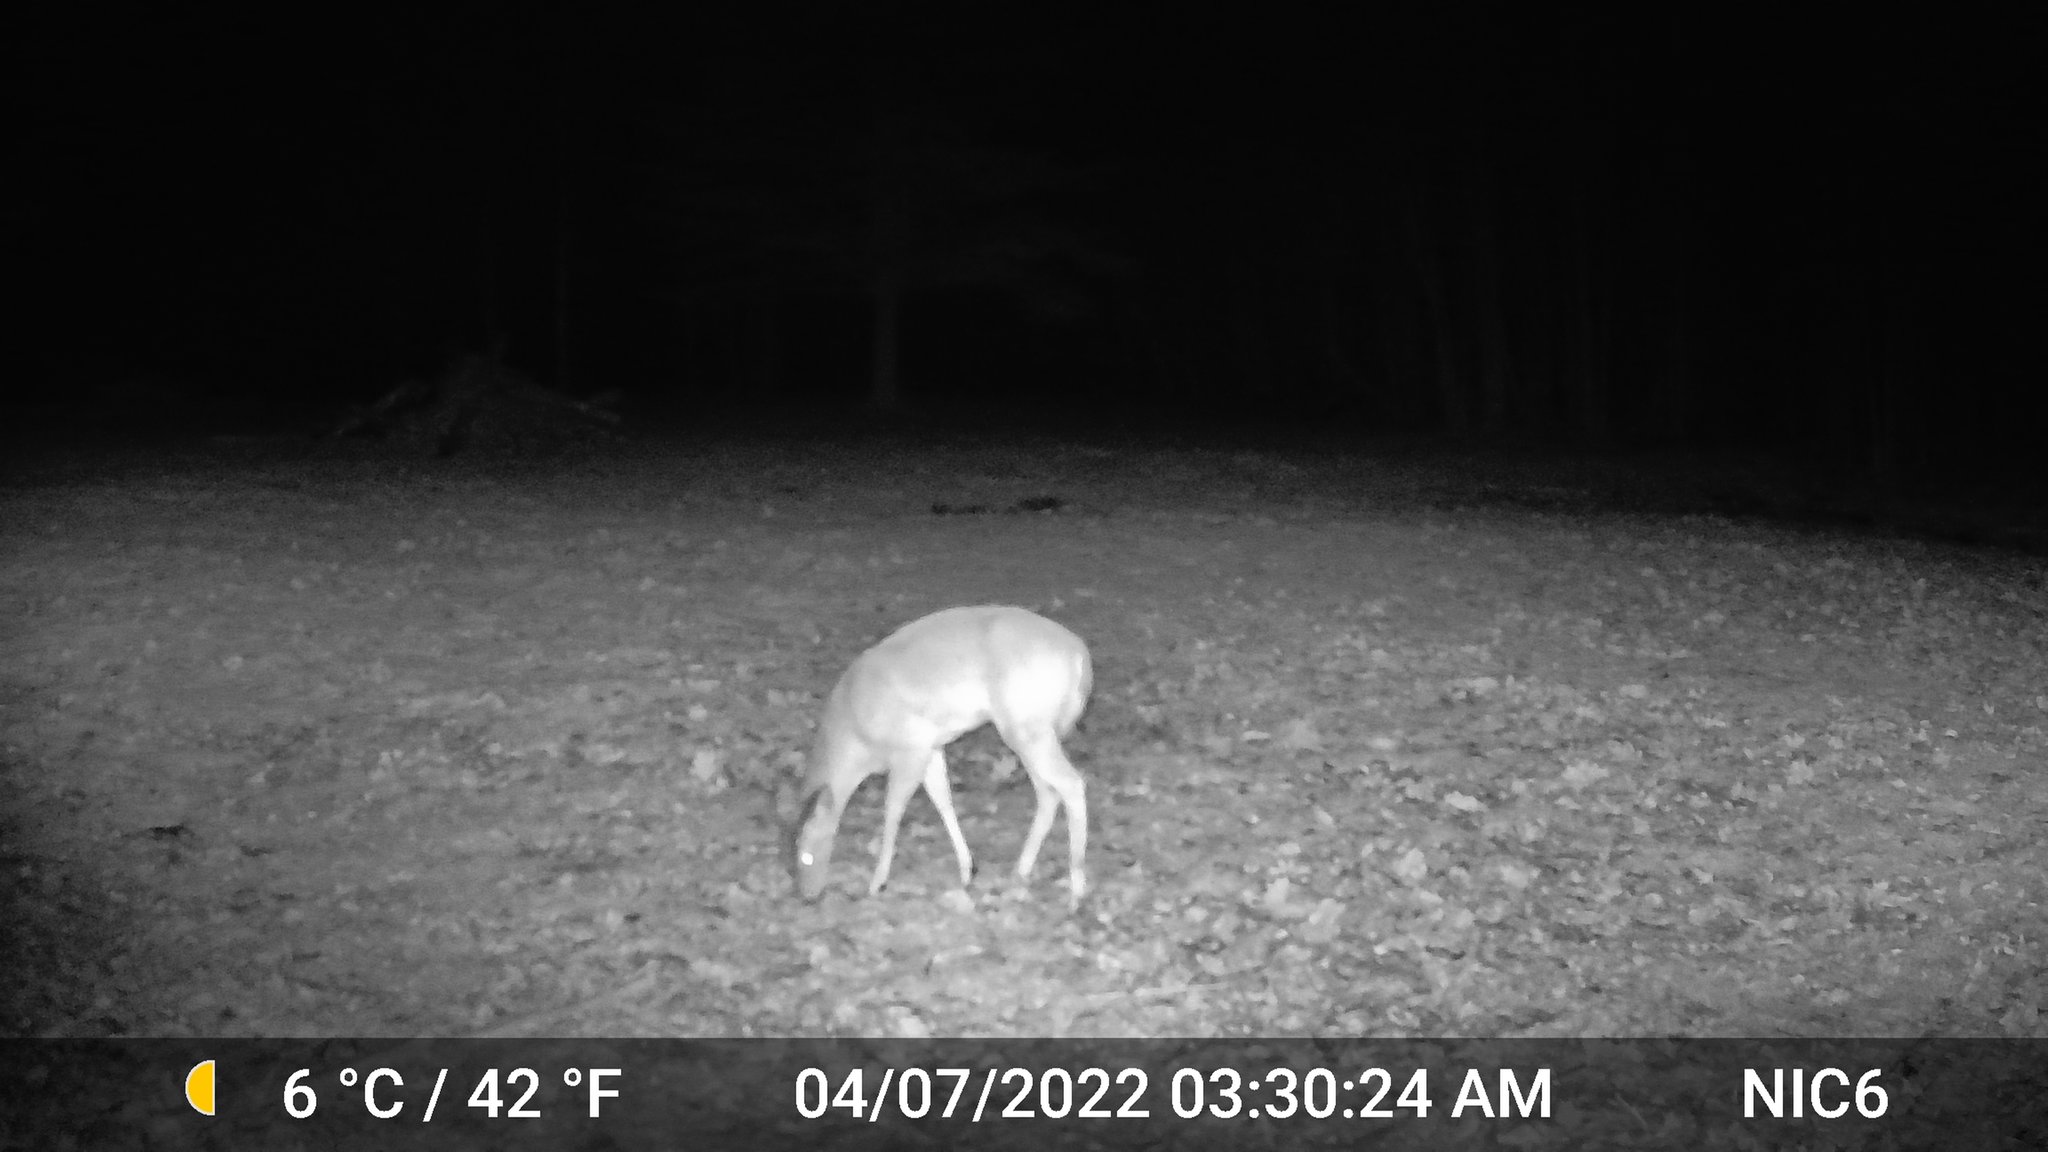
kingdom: Animalia
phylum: Chordata
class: Mammalia
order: Artiodactyla
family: Cervidae
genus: Odocoileus
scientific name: Odocoileus virginianus
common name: White-tailed deer
